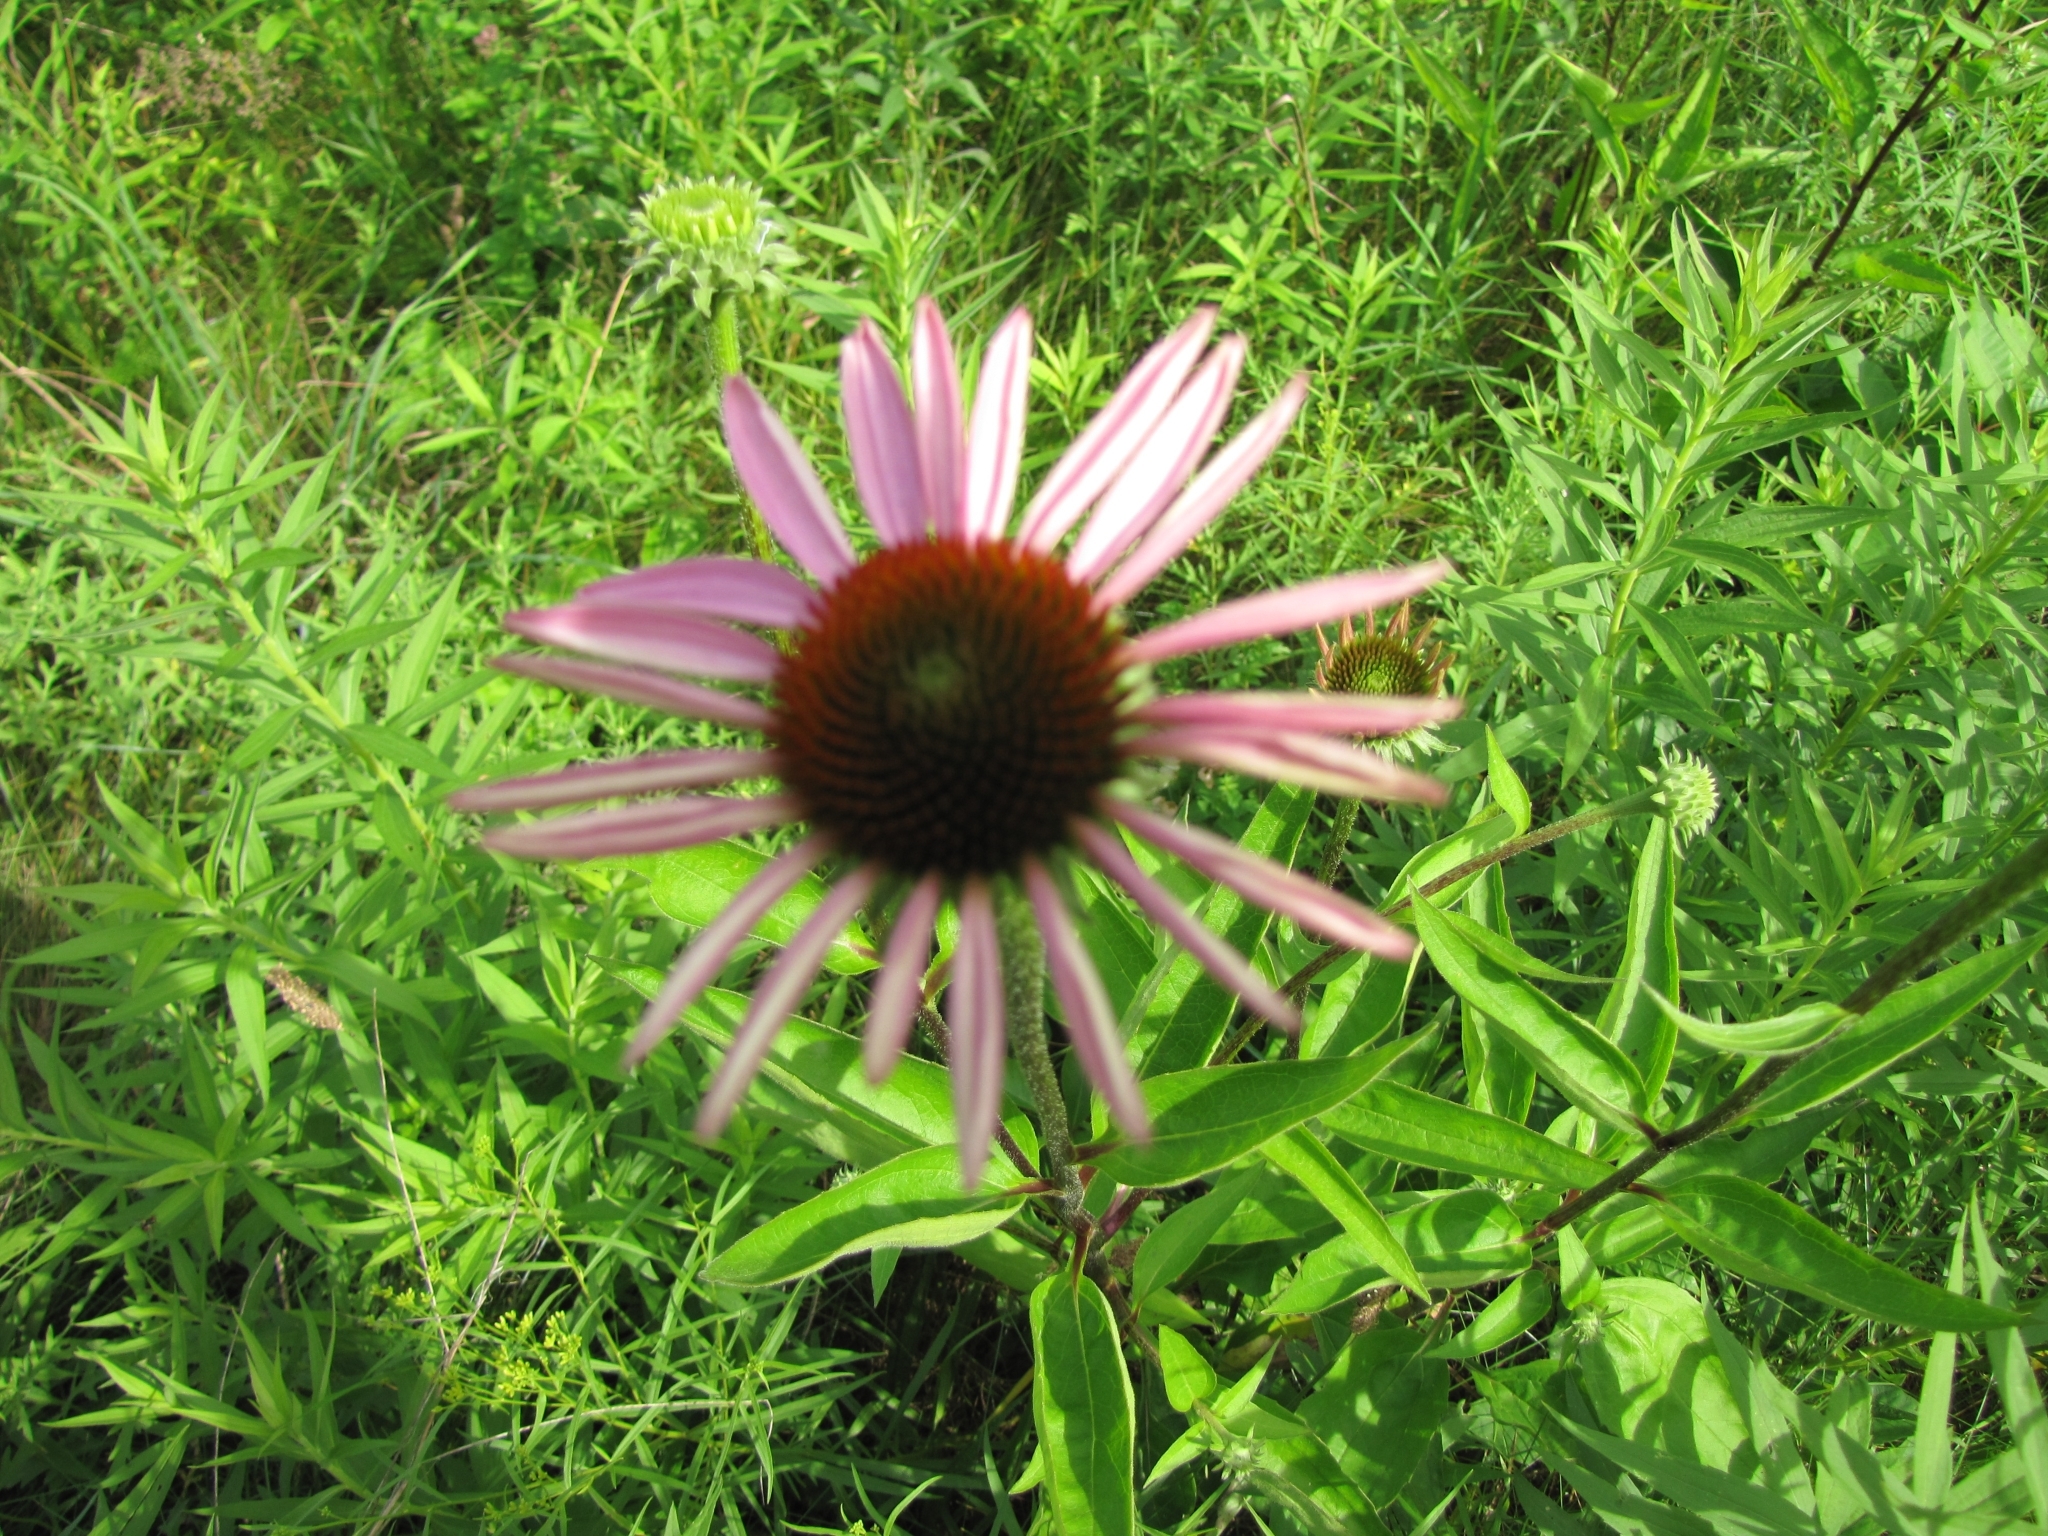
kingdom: Plantae
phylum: Tracheophyta
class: Magnoliopsida
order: Asterales
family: Asteraceae
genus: Echinacea
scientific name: Echinacea purpurea
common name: Broad-leaved purple coneflower
